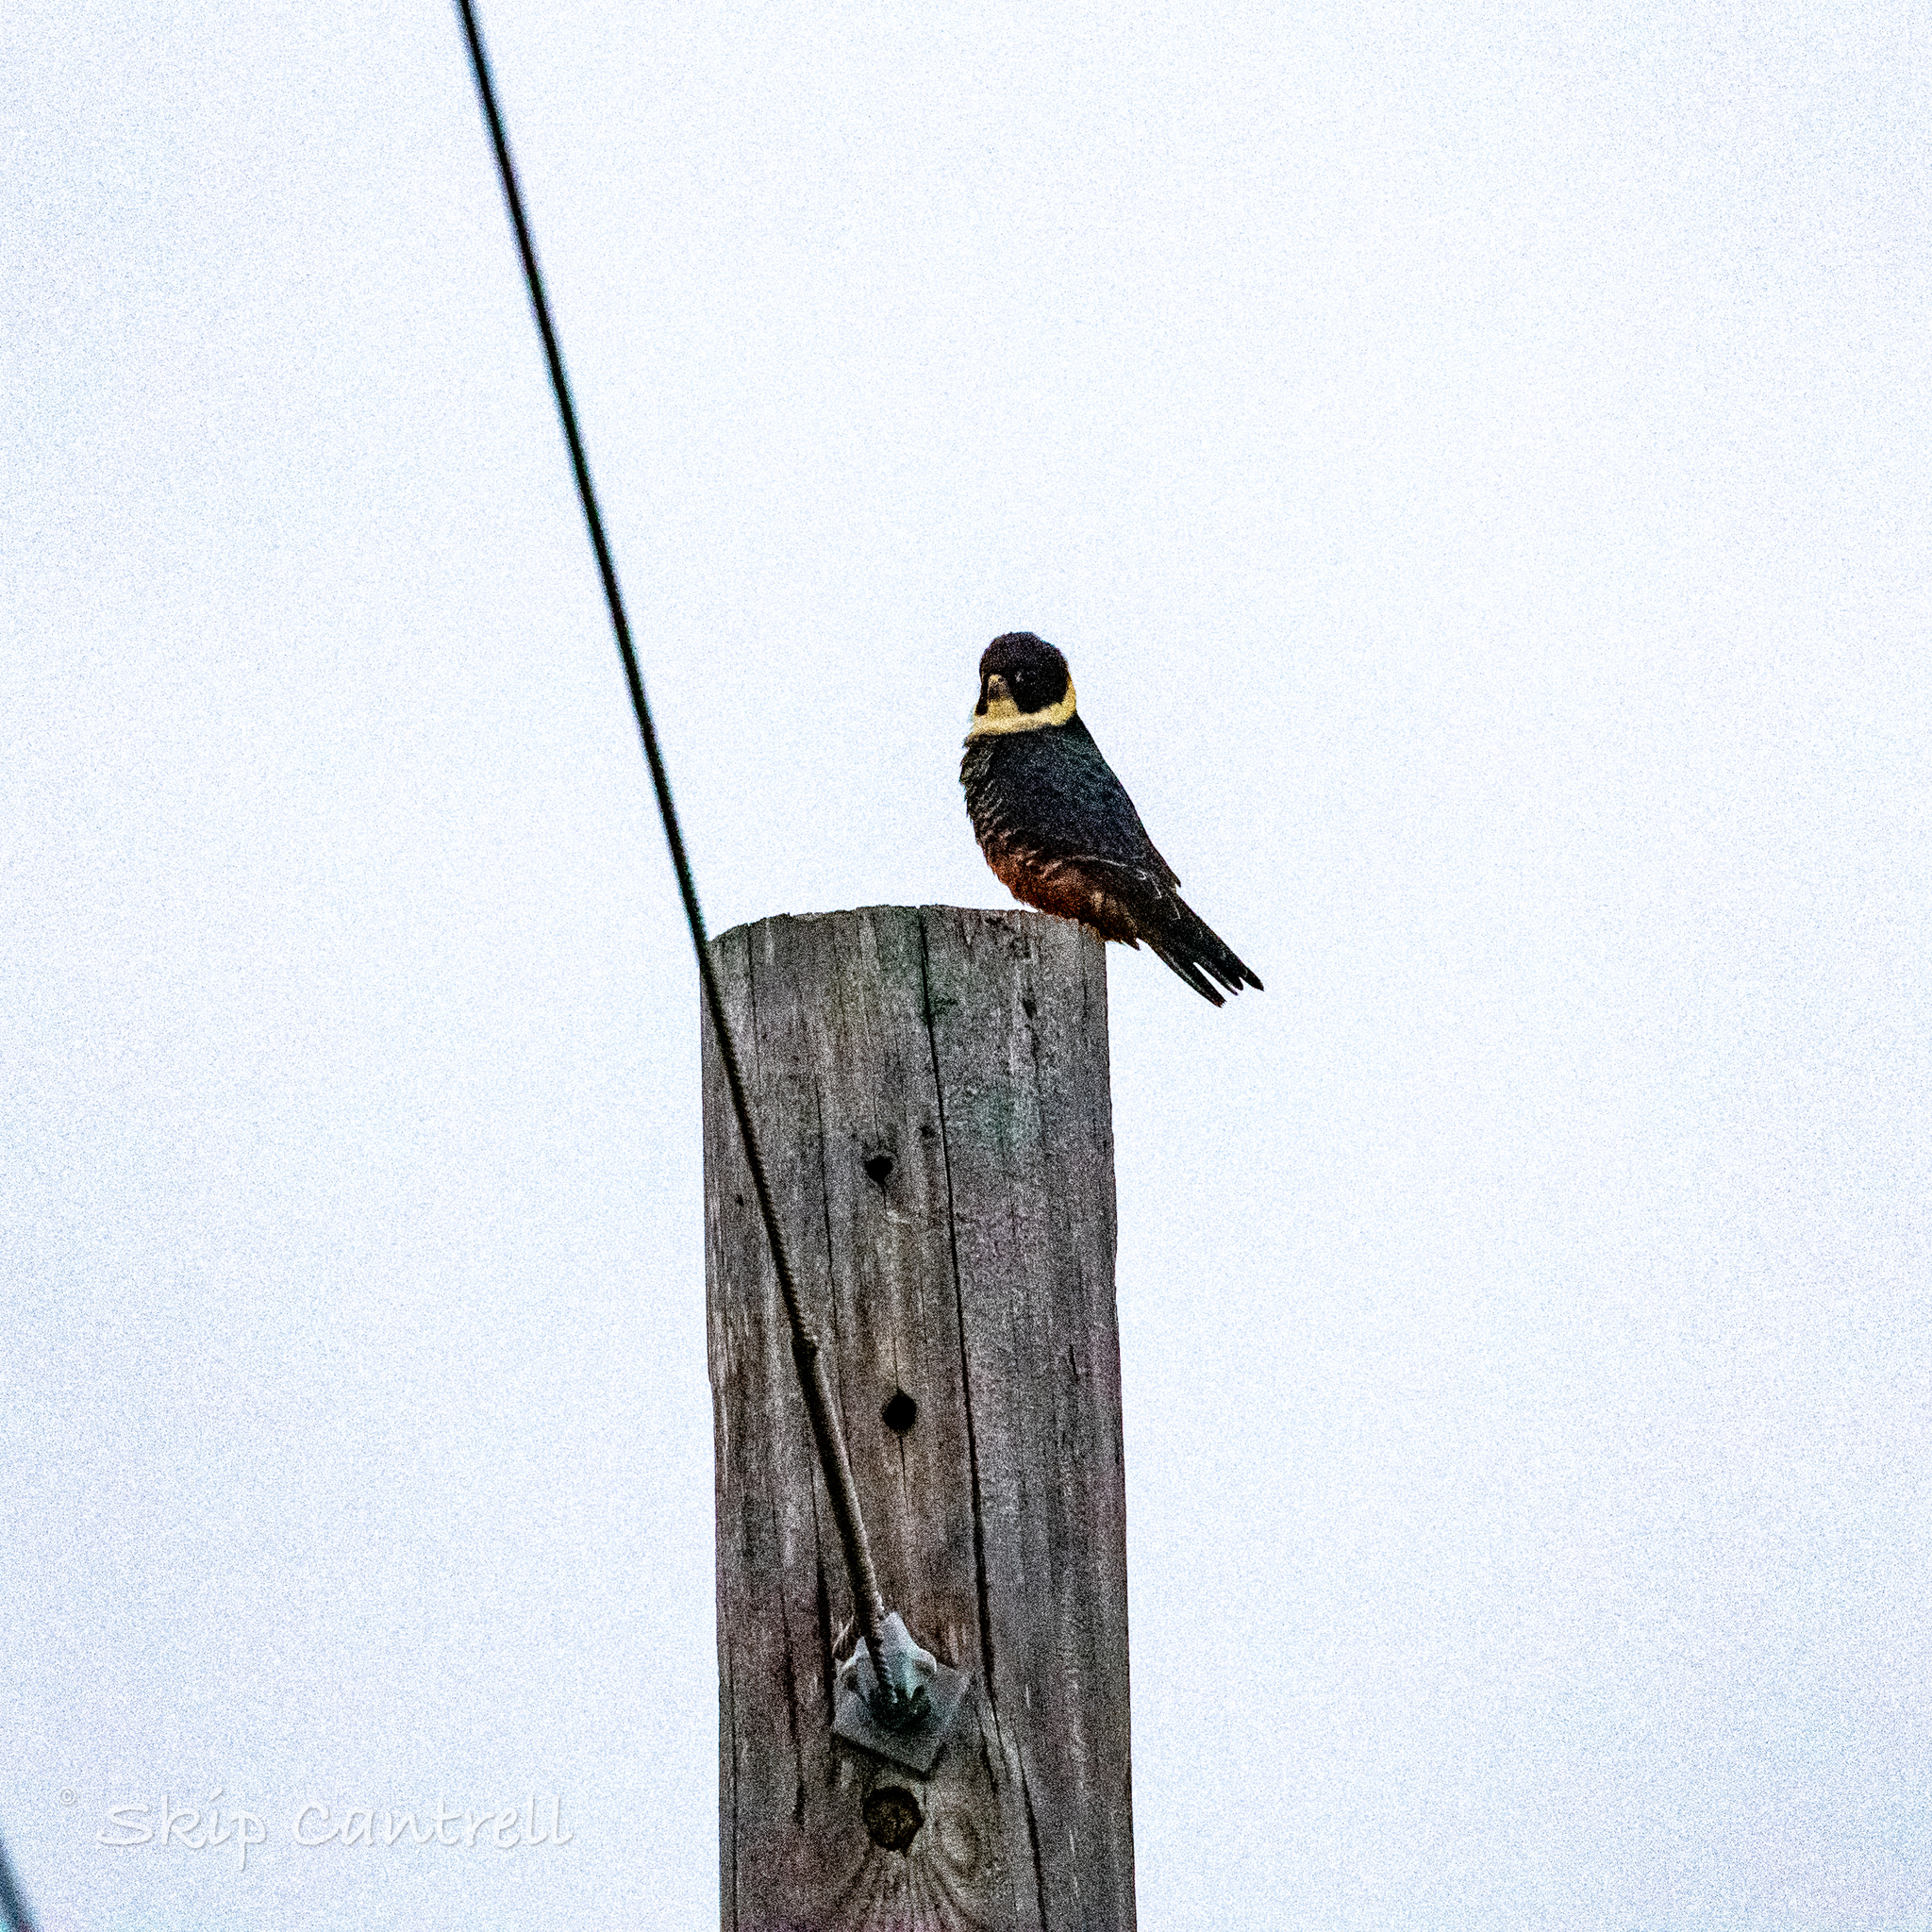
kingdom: Animalia
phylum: Chordata
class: Aves
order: Falconiformes
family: Falconidae
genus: Falco
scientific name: Falco rufigularis
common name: Bat falcon
